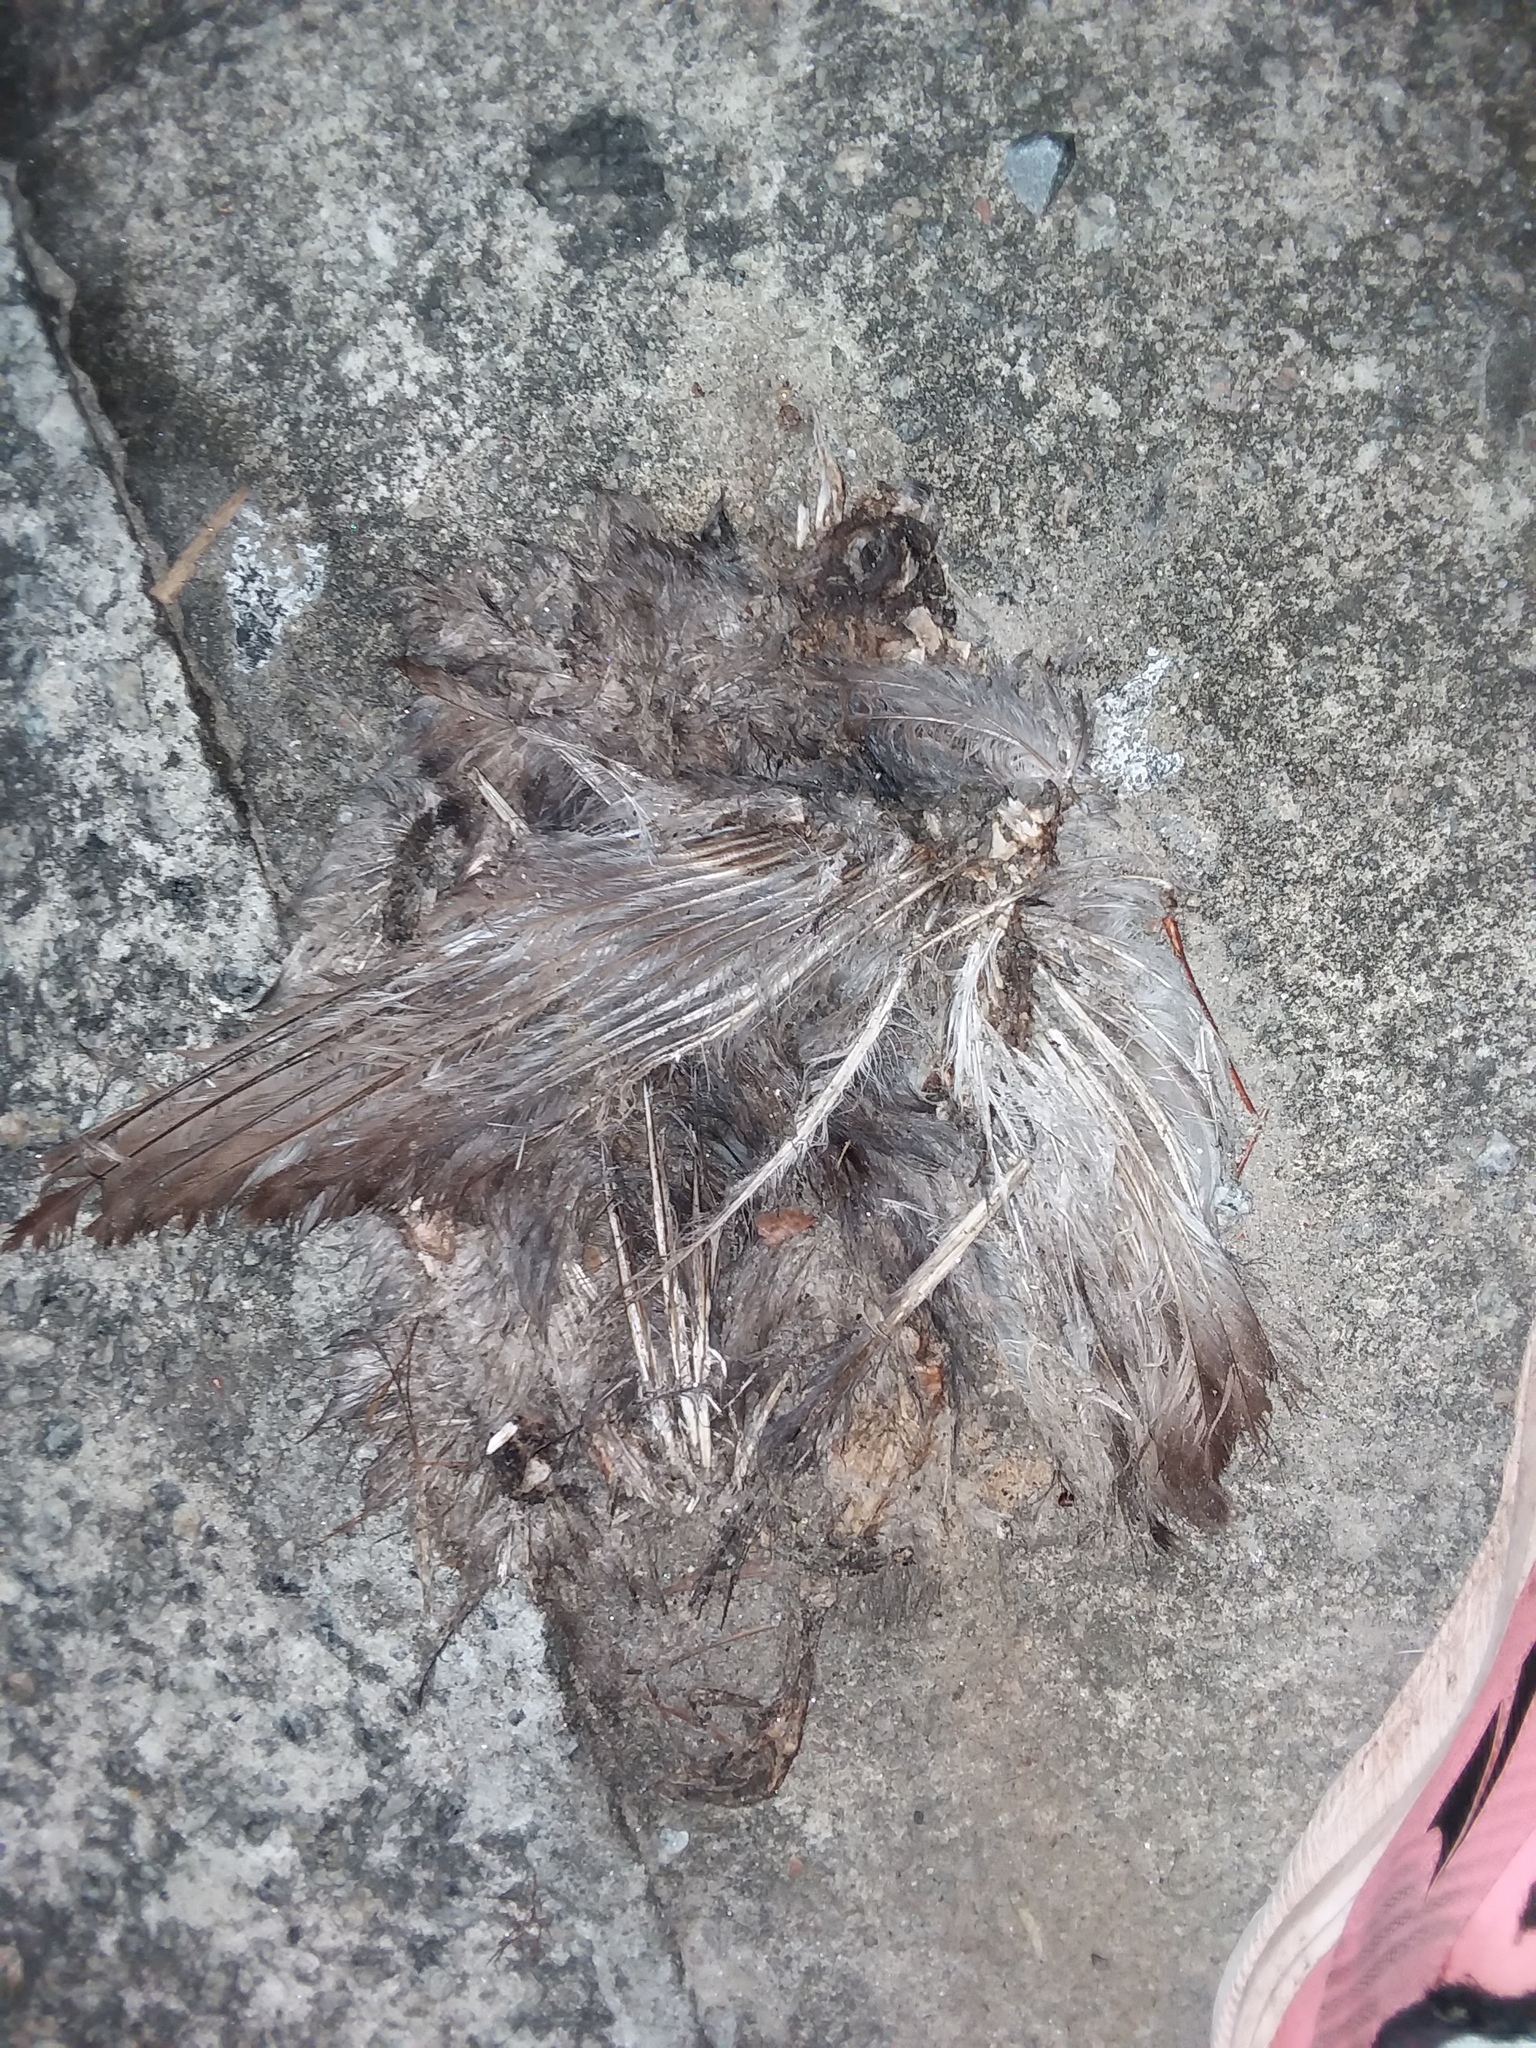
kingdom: Animalia
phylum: Chordata
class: Aves
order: Columbiformes
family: Columbidae
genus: Columba
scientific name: Columba livia
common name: Rock pigeon
